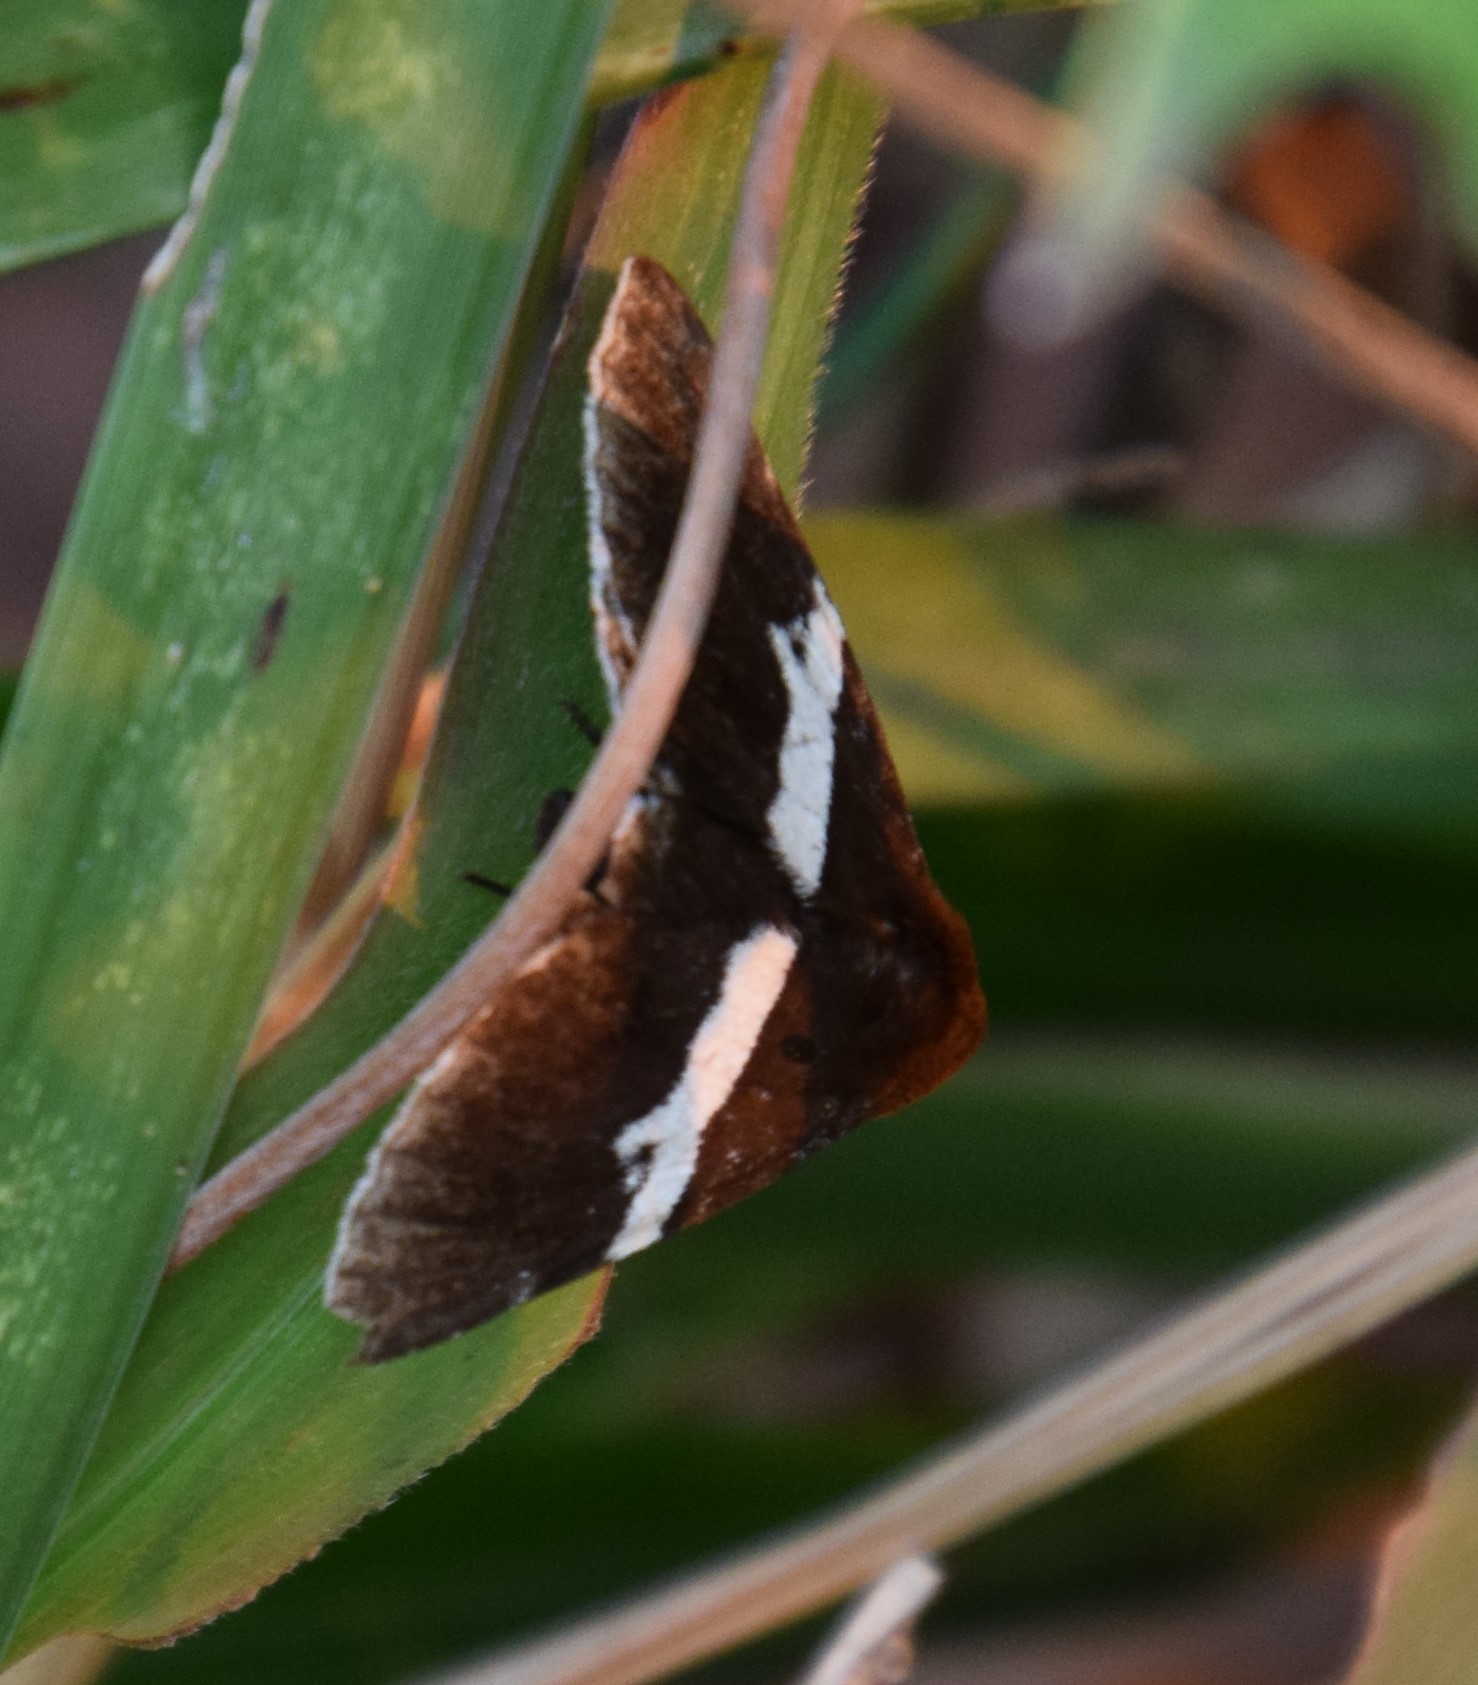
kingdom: Animalia
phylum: Arthropoda
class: Insecta
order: Lepidoptera
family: Erebidae
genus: Buzara
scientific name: Buzara
